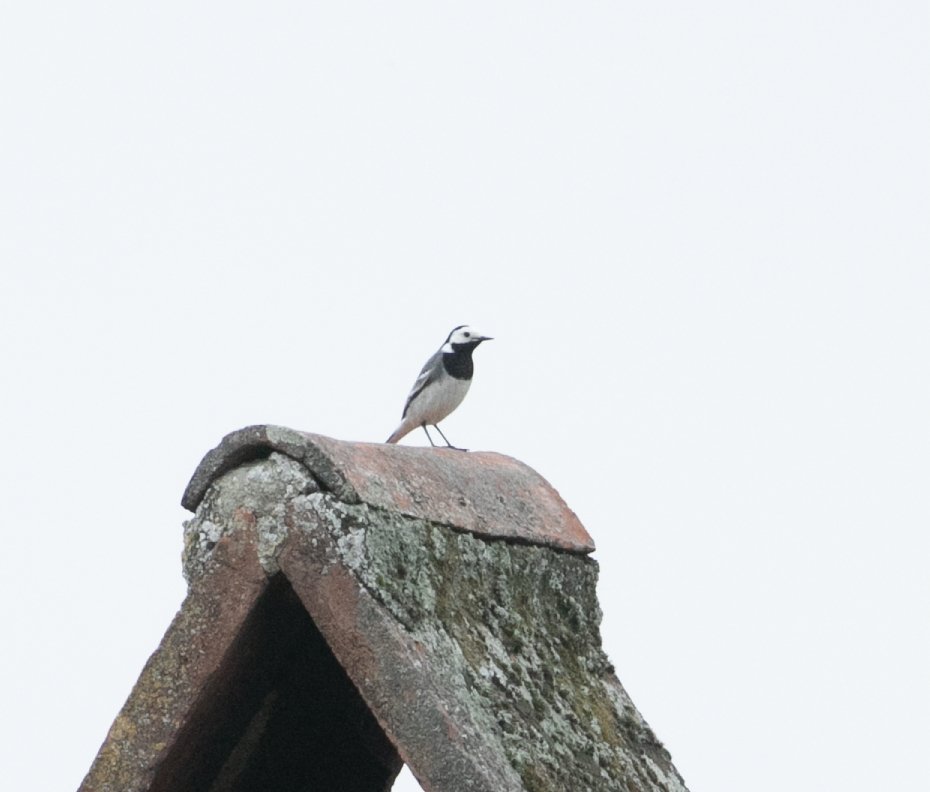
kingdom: Animalia
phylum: Chordata
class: Aves
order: Passeriformes
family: Motacillidae
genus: Motacilla
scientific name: Motacilla alba
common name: White wagtail
